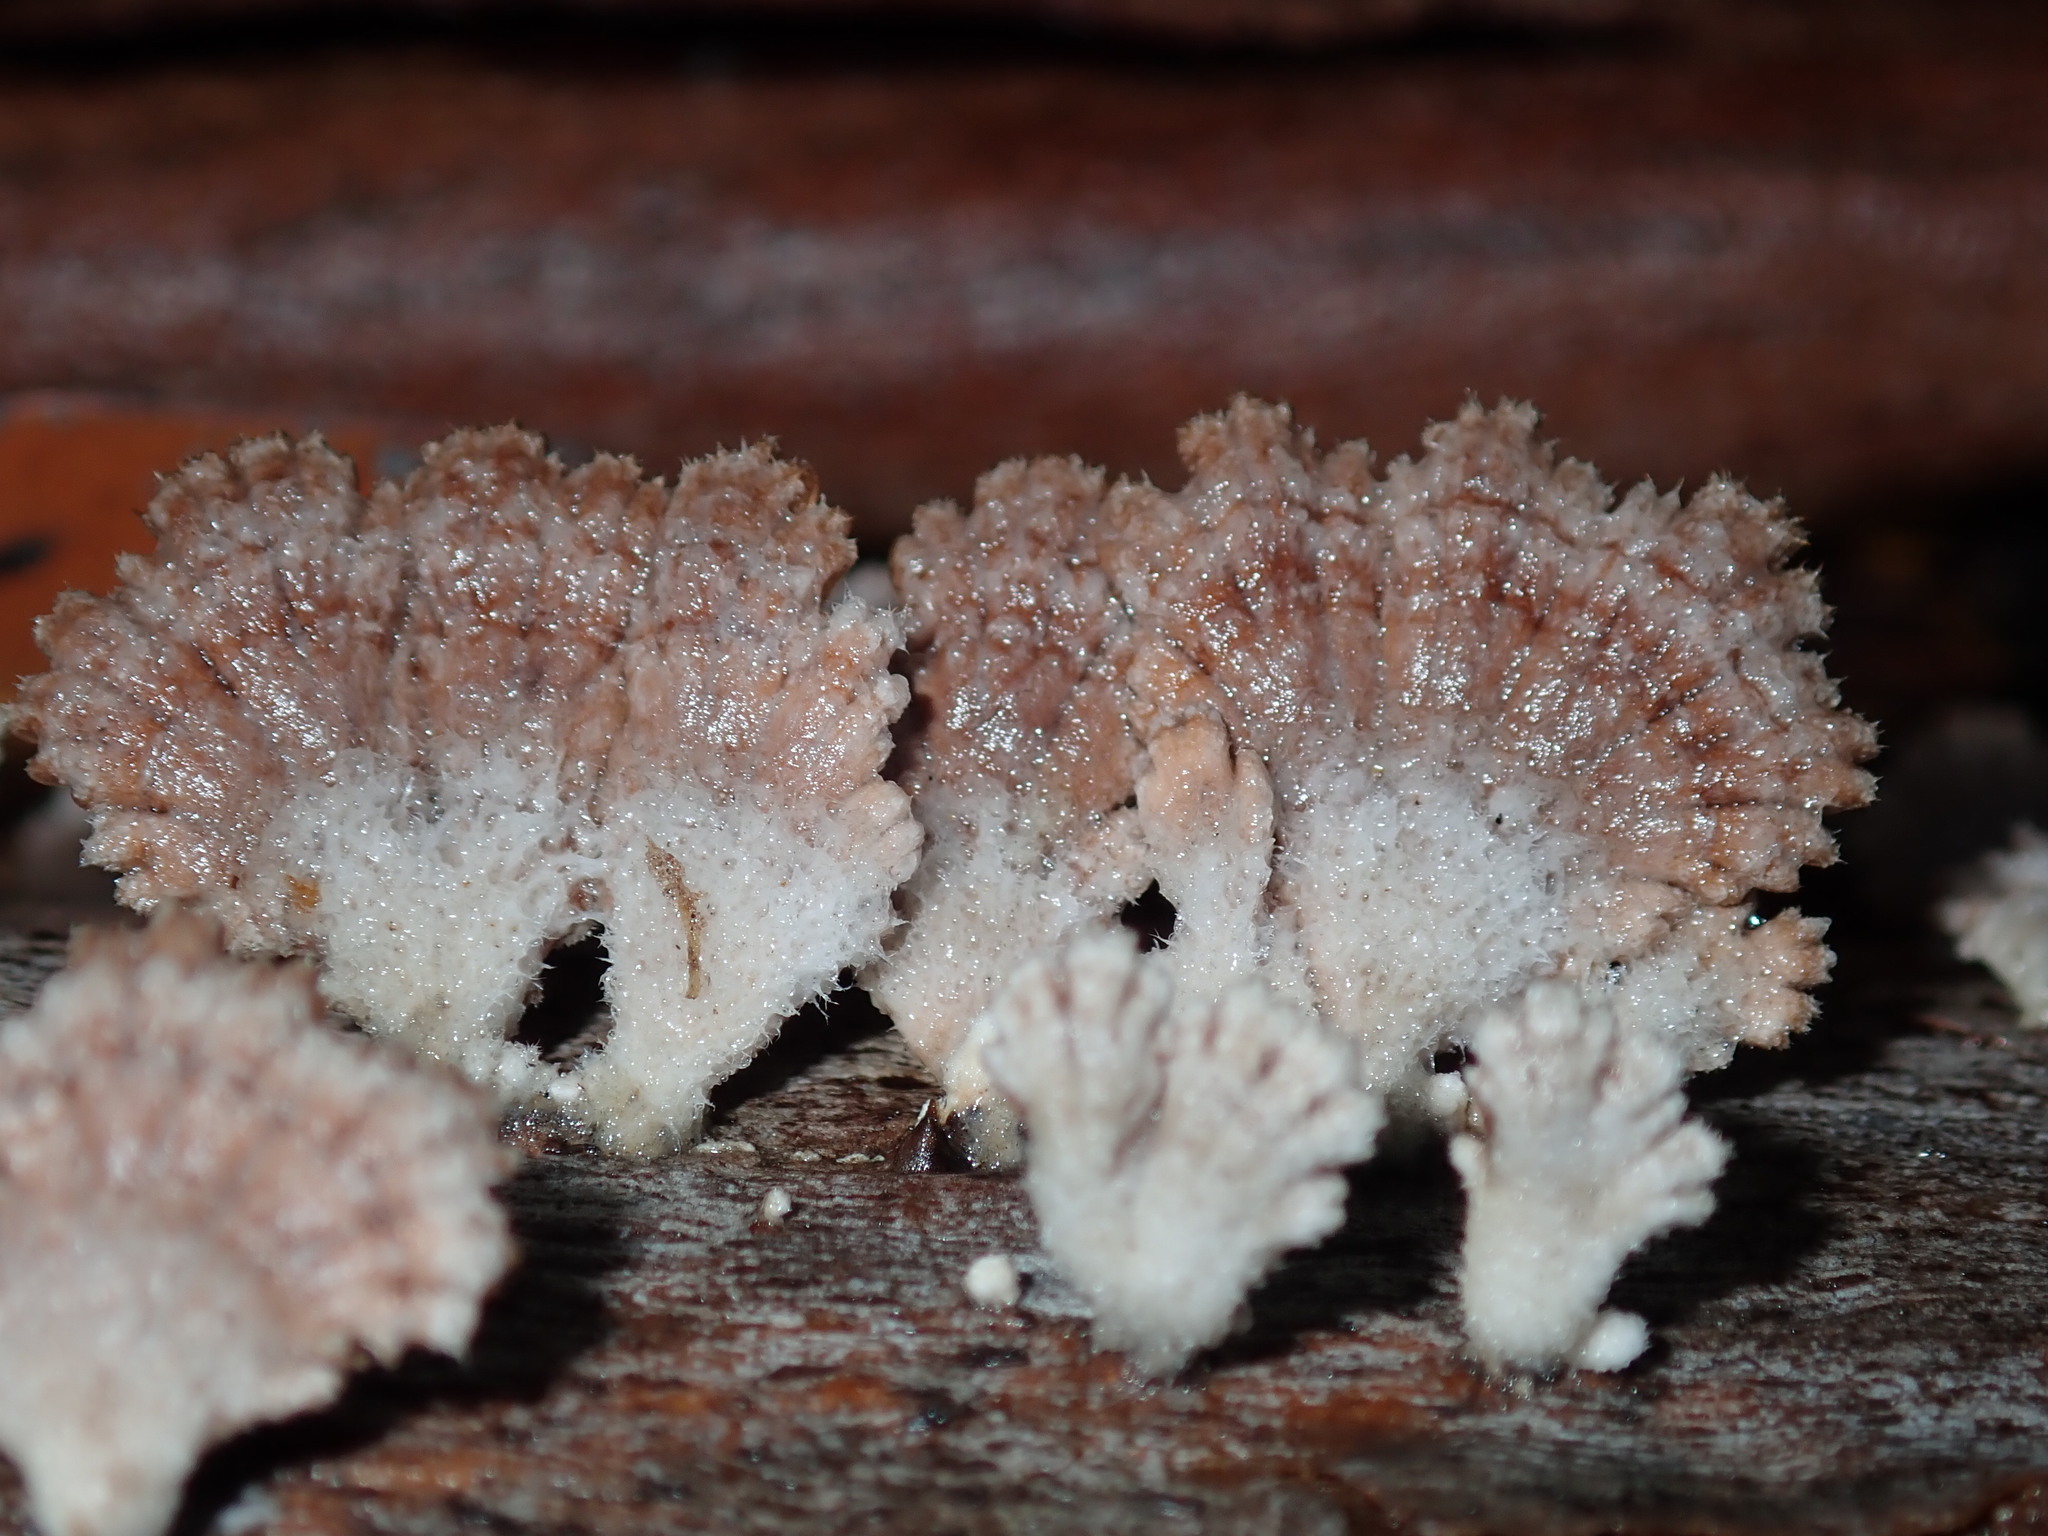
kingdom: Fungi
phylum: Basidiomycota
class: Agaricomycetes
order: Agaricales
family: Schizophyllaceae
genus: Schizophyllum
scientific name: Schizophyllum commune
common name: Common porecrust
